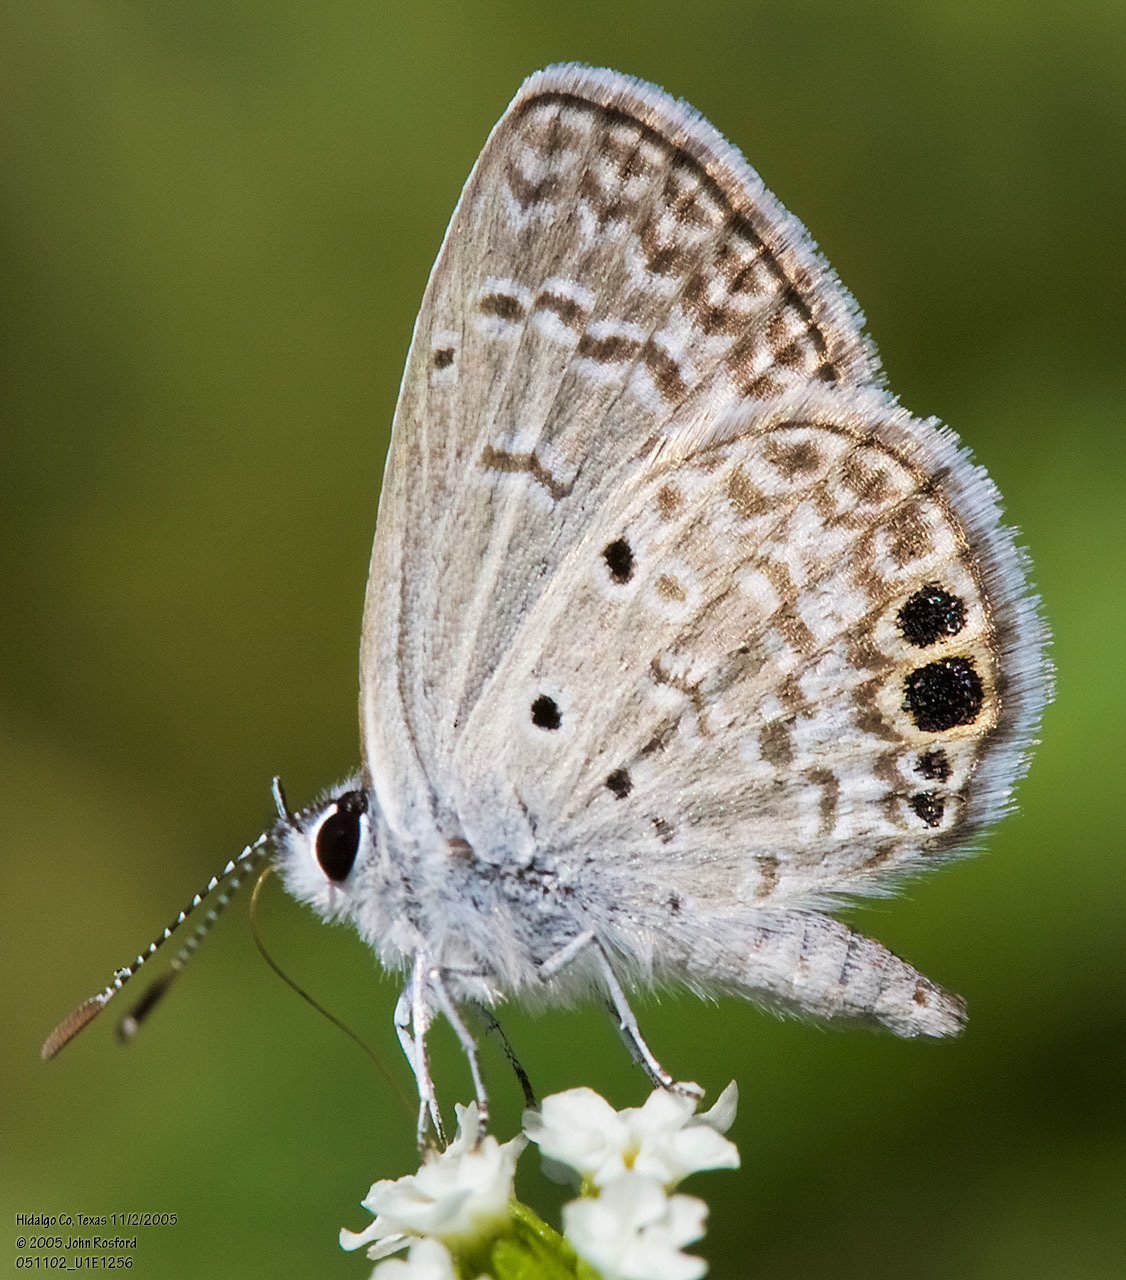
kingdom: Animalia
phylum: Arthropoda
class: Insecta
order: Lepidoptera
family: Lycaenidae
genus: Hemiargus
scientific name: Hemiargus ceraunus
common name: Ceraunus blue
